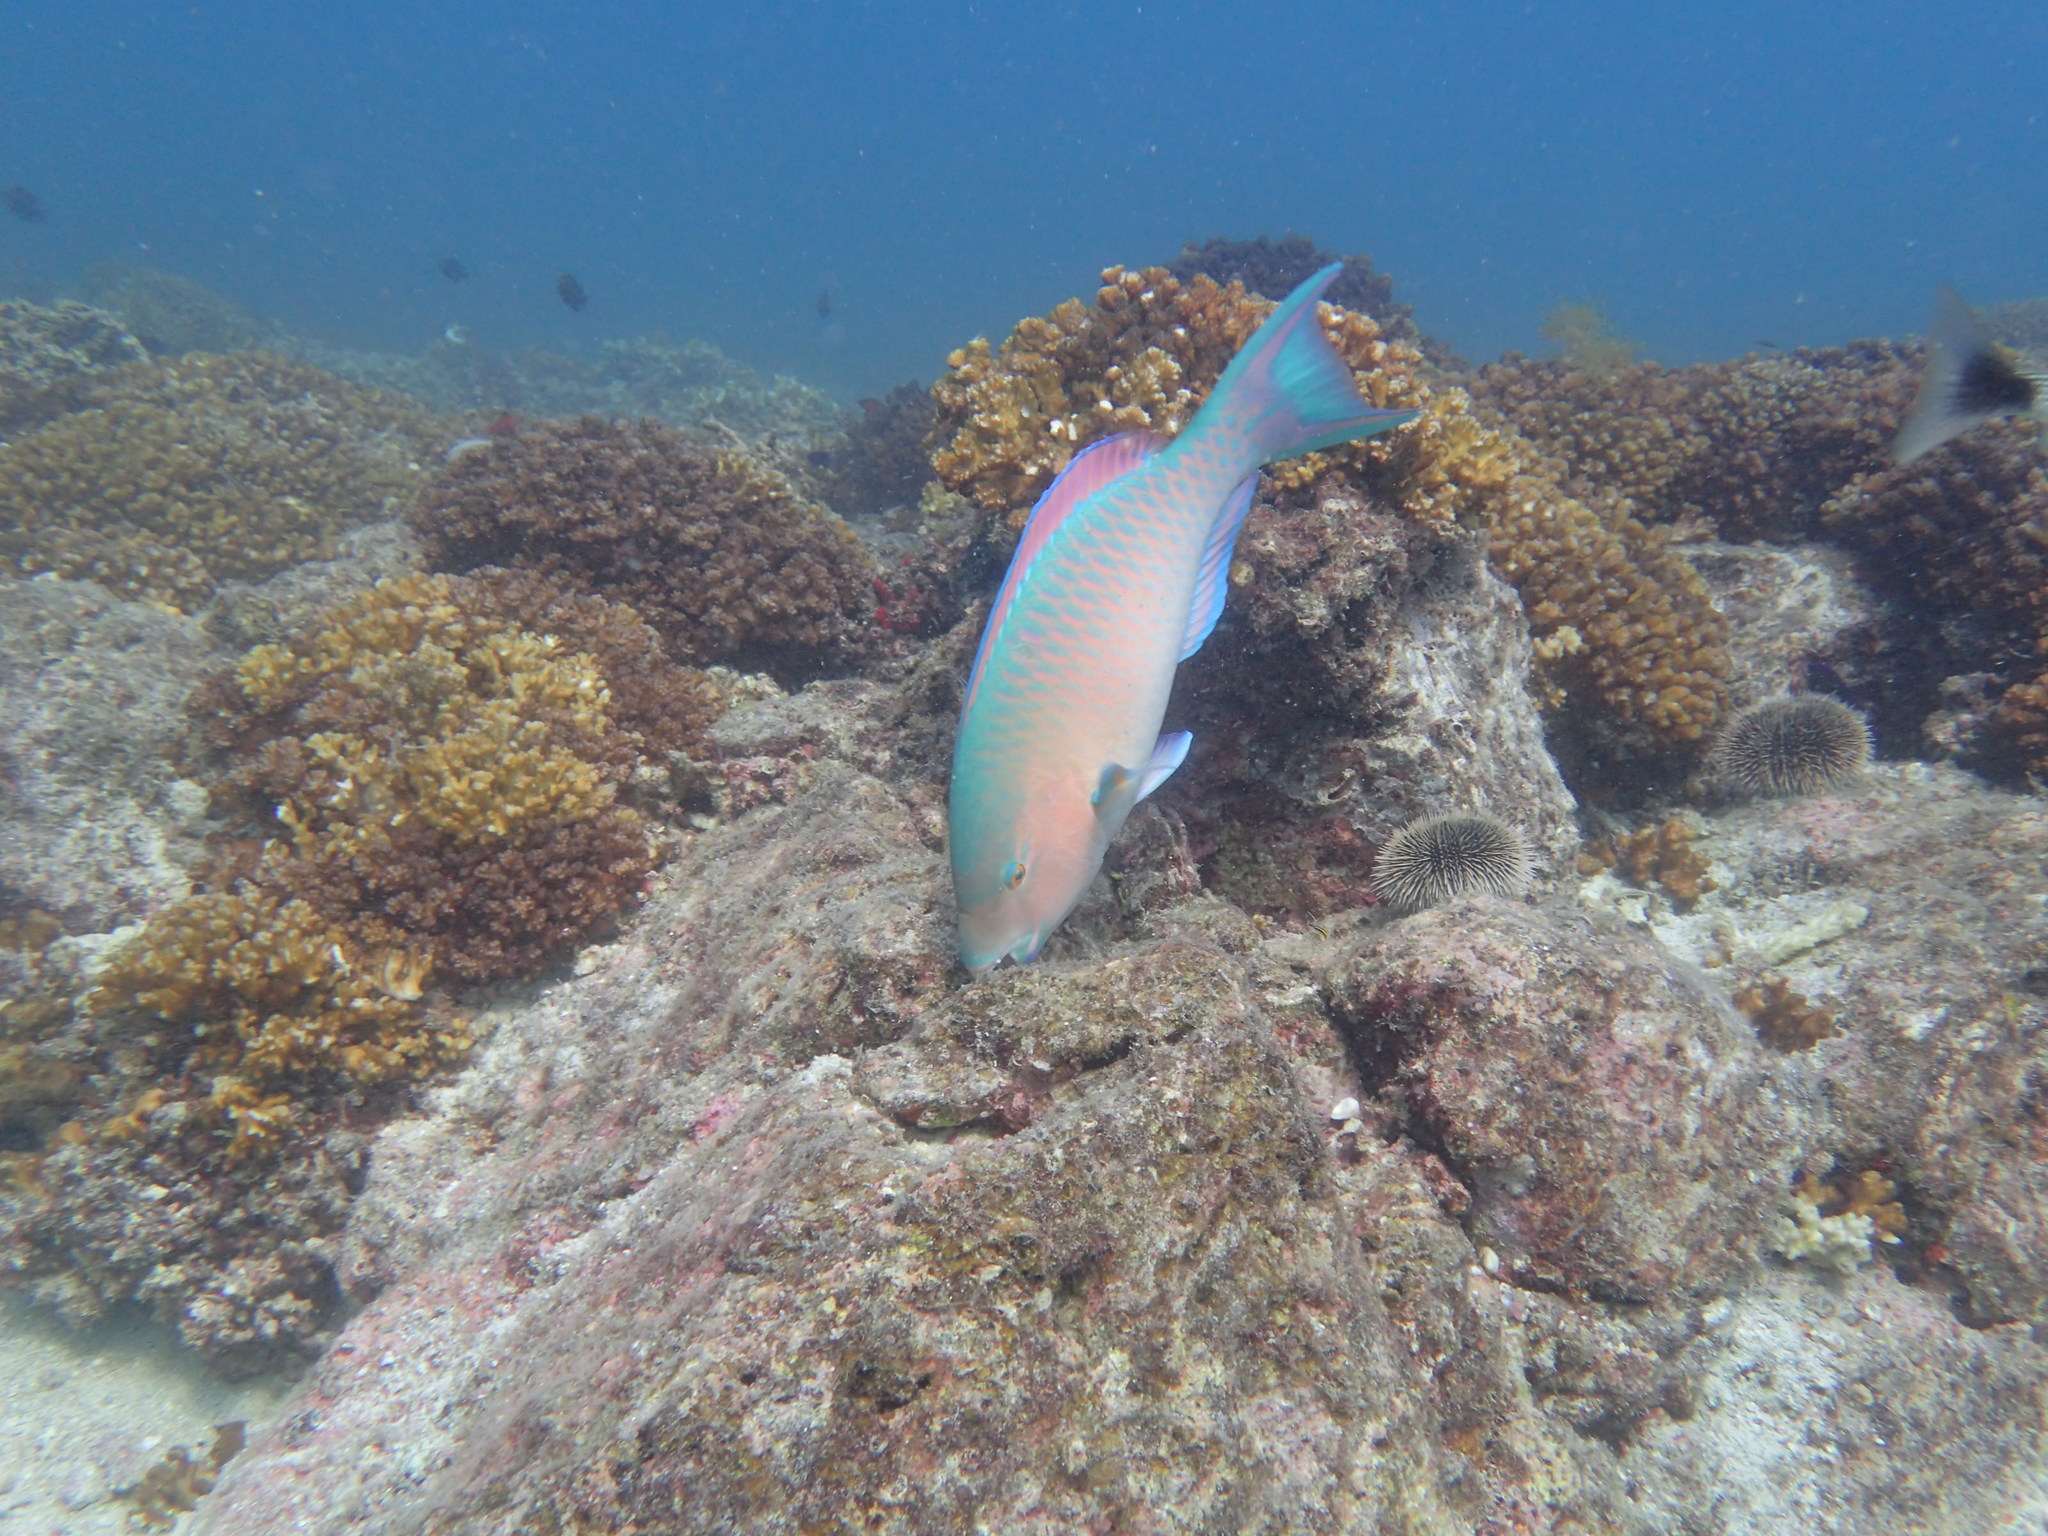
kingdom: Animalia
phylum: Chordata
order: Perciformes
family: Scaridae
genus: Scarus
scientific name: Scarus ghobban
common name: Blue-barred parrotfish
